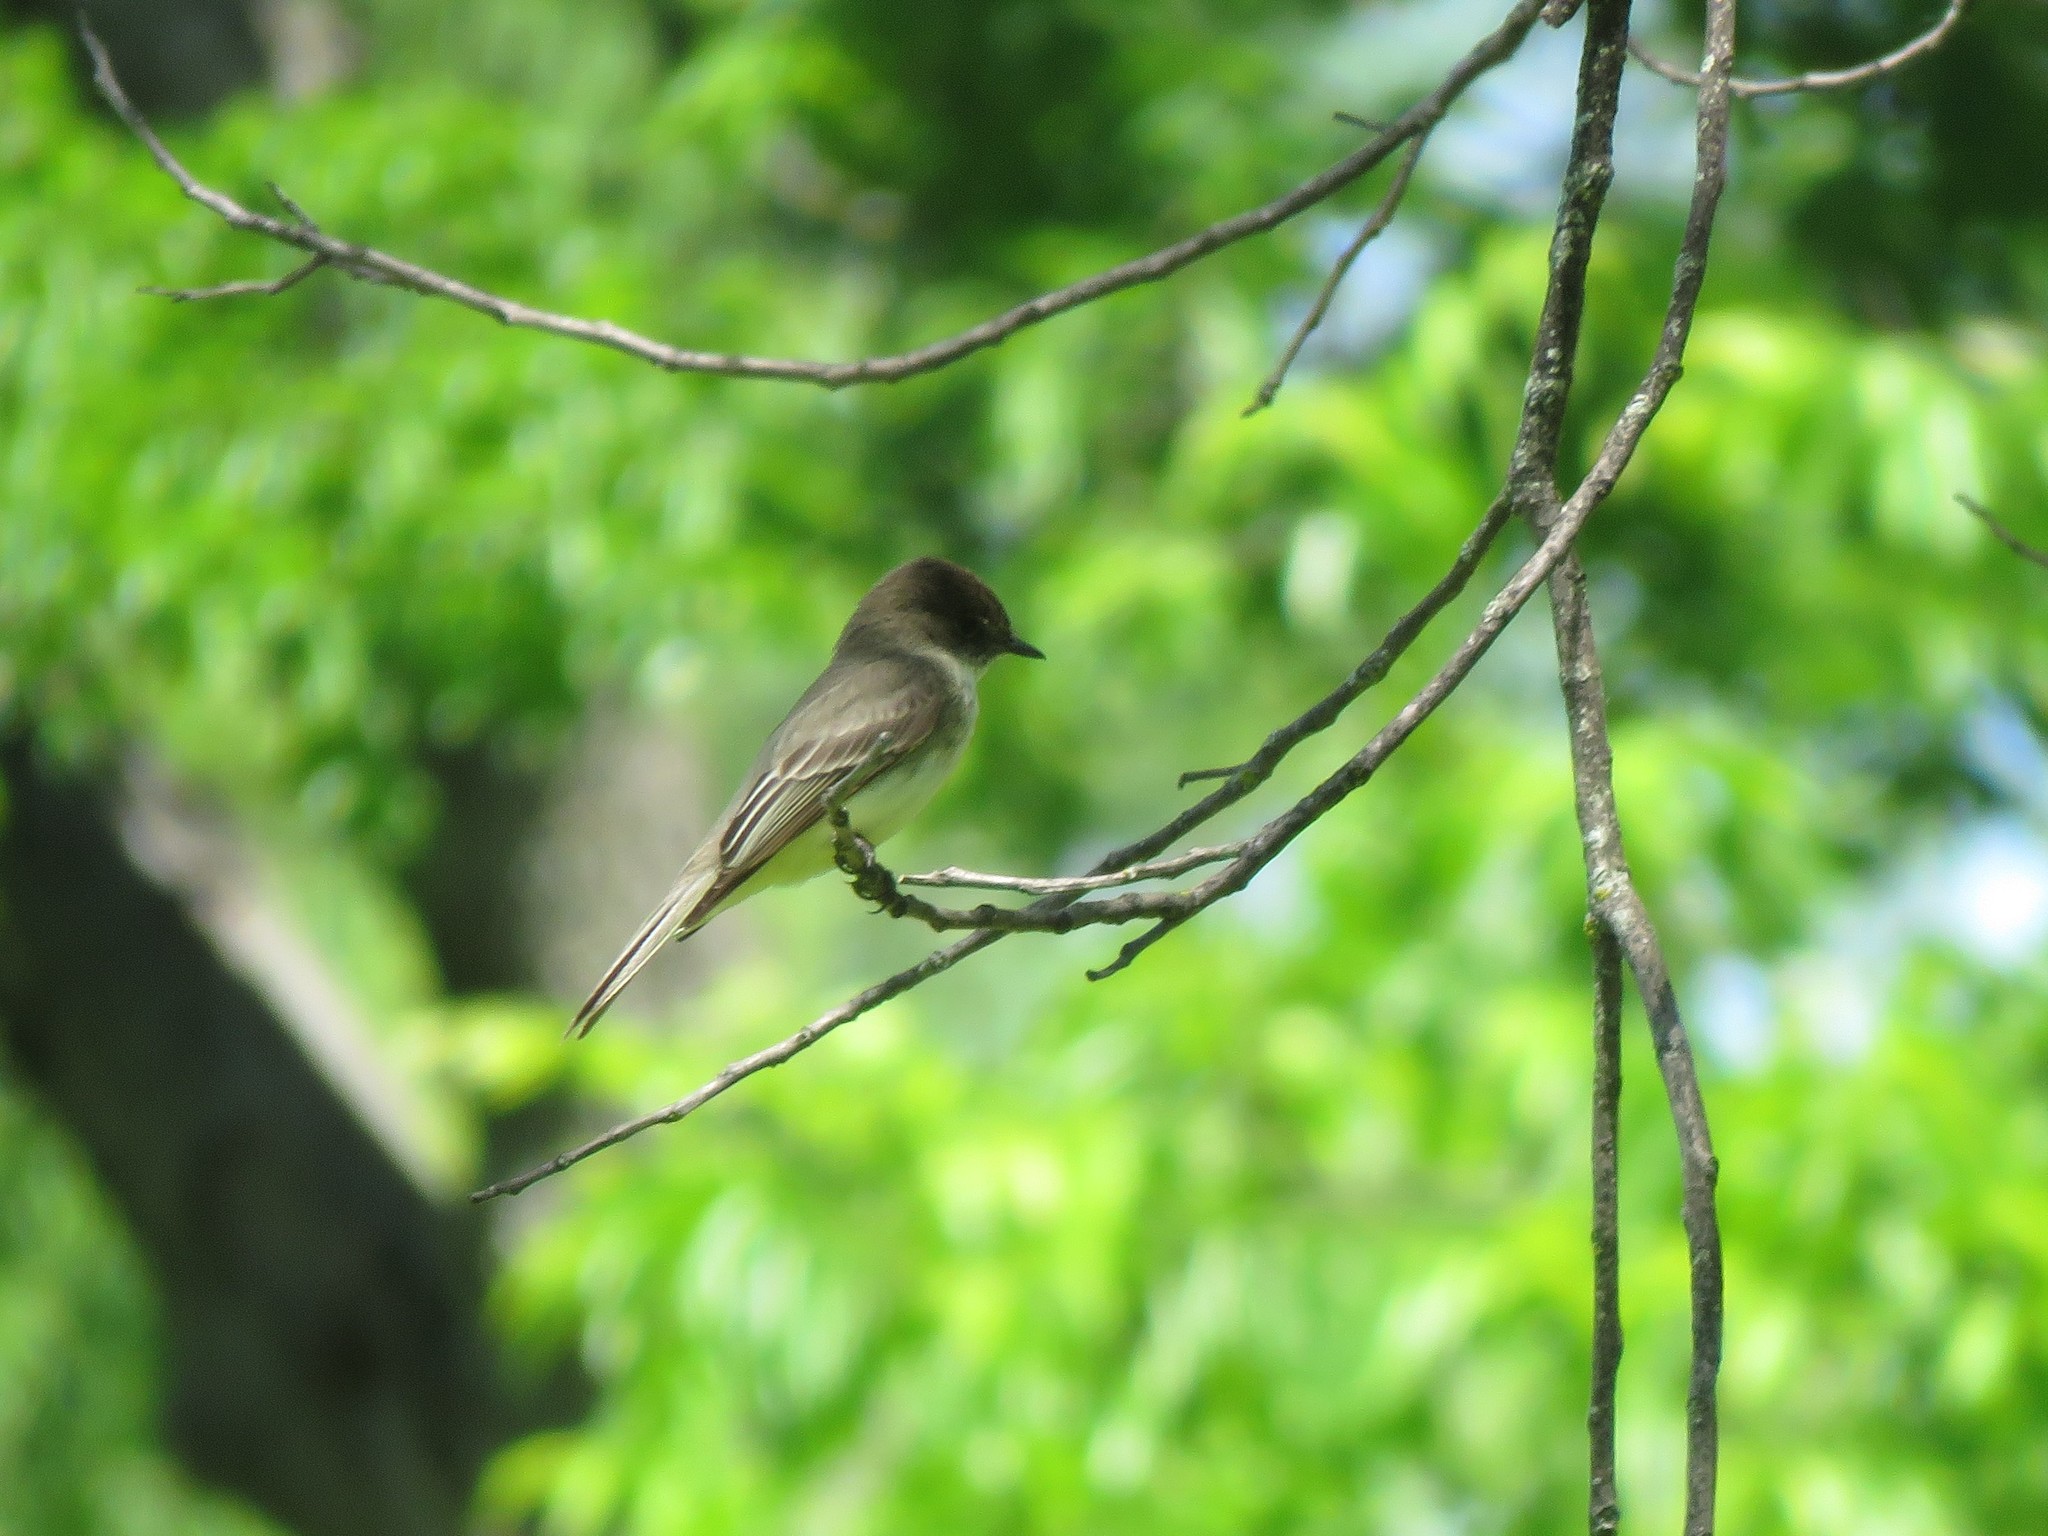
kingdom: Animalia
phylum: Chordata
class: Aves
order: Passeriformes
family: Tyrannidae
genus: Sayornis
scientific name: Sayornis phoebe
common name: Eastern phoebe
